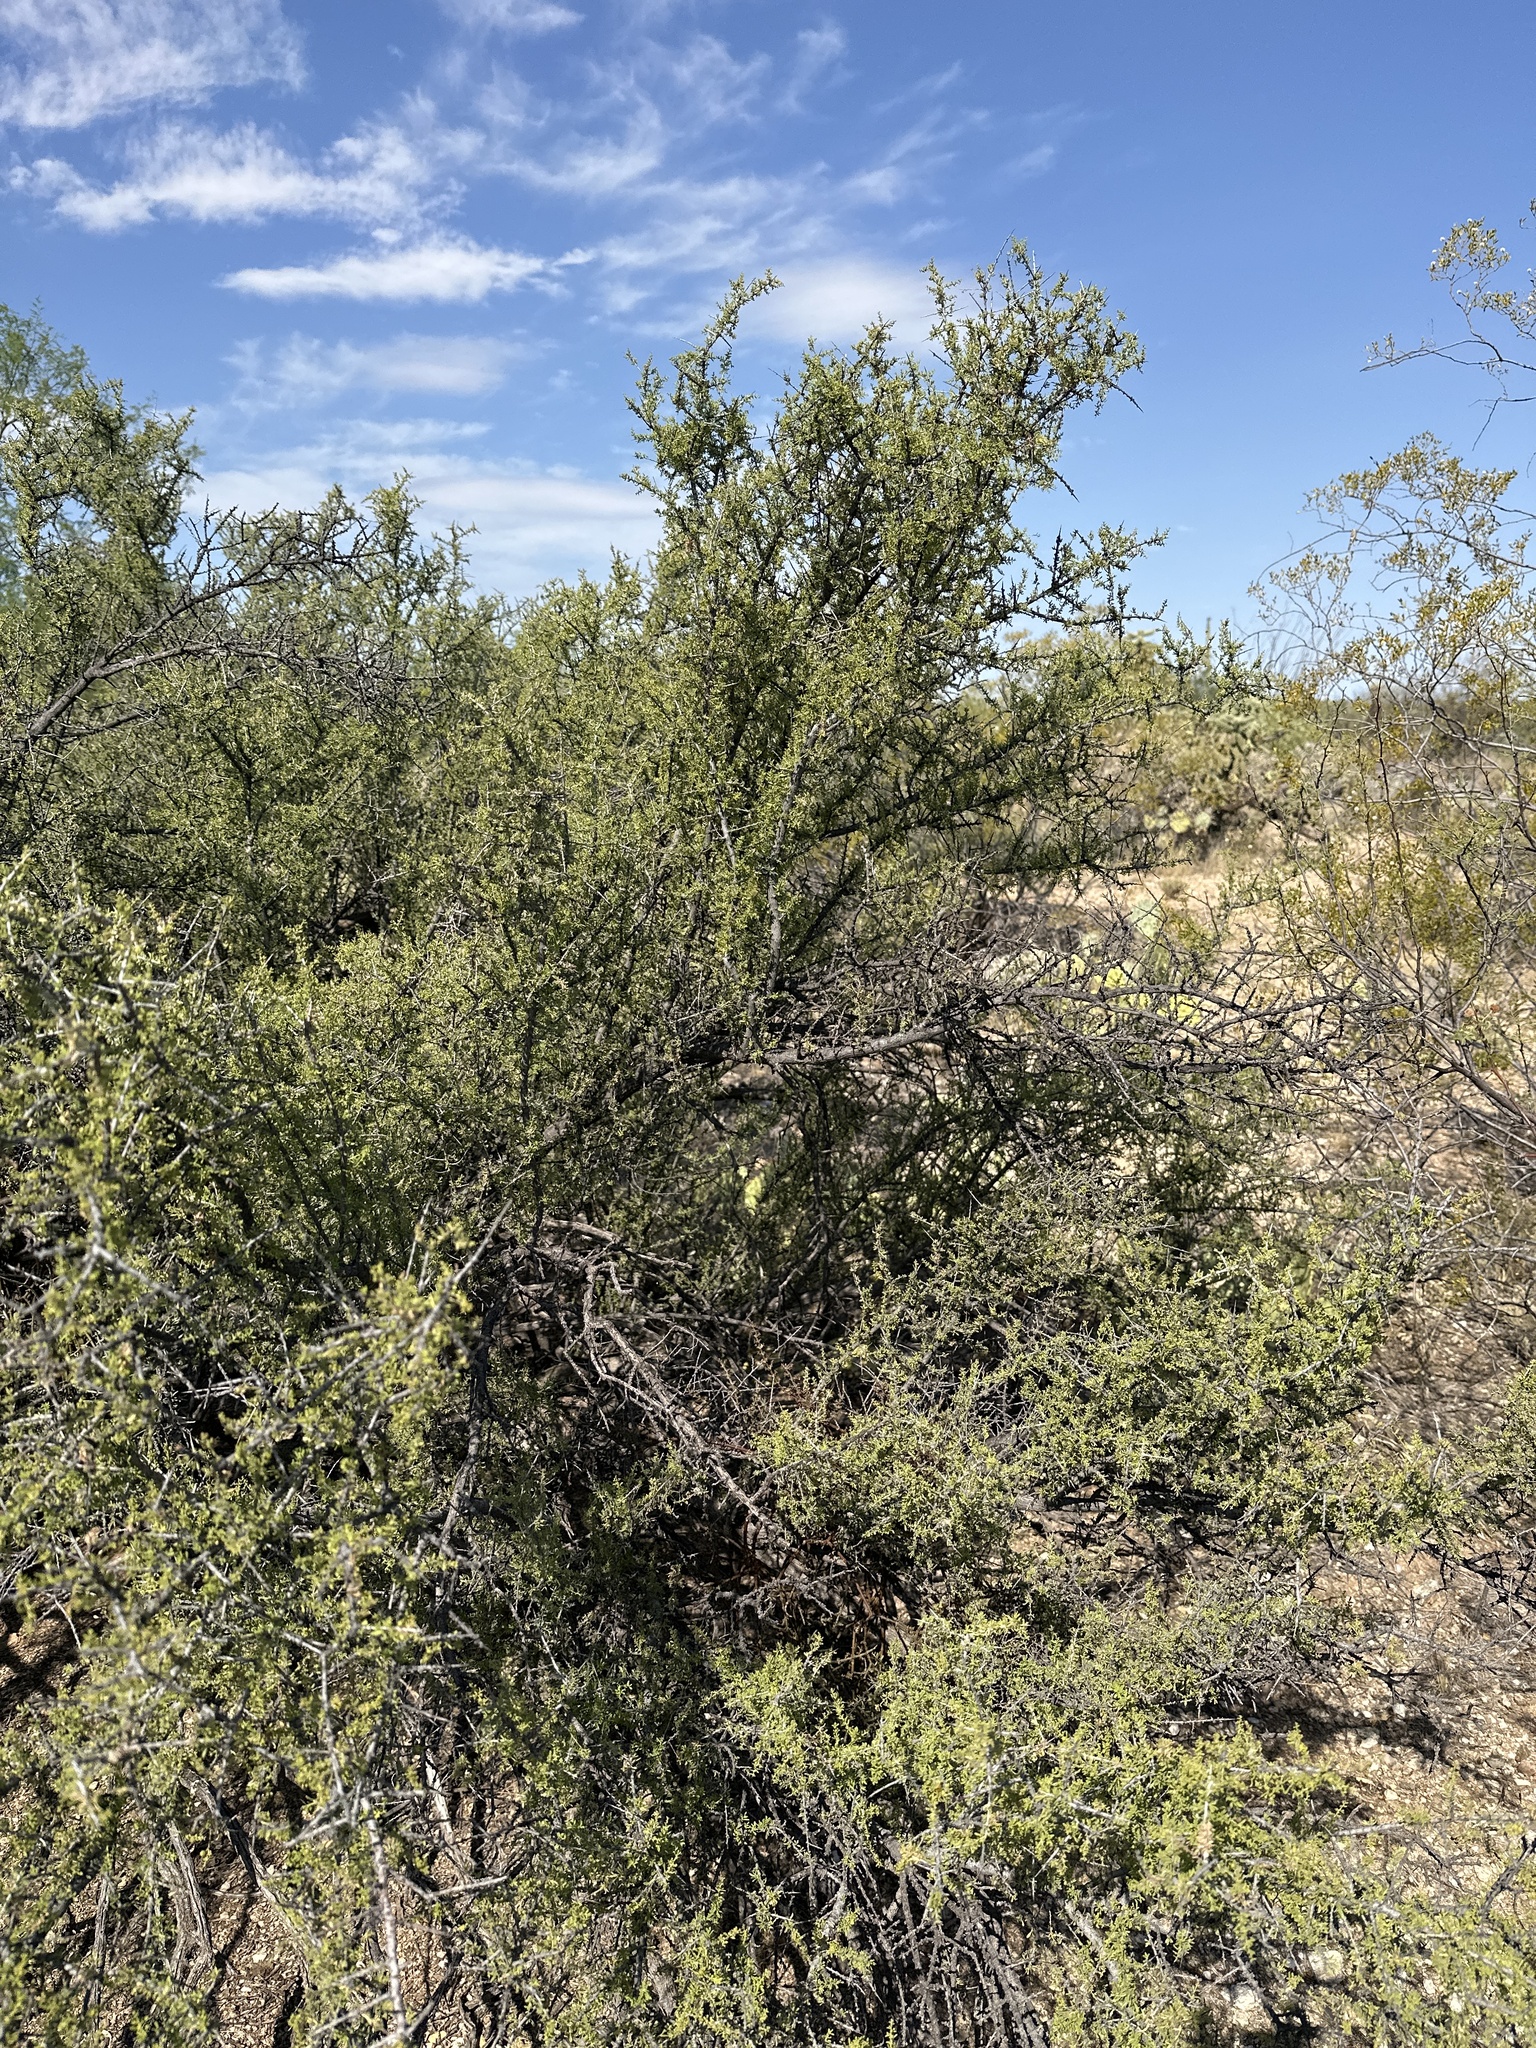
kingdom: Plantae
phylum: Tracheophyta
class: Magnoliopsida
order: Rosales
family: Rhamnaceae
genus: Condalia
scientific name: Condalia warnockii
